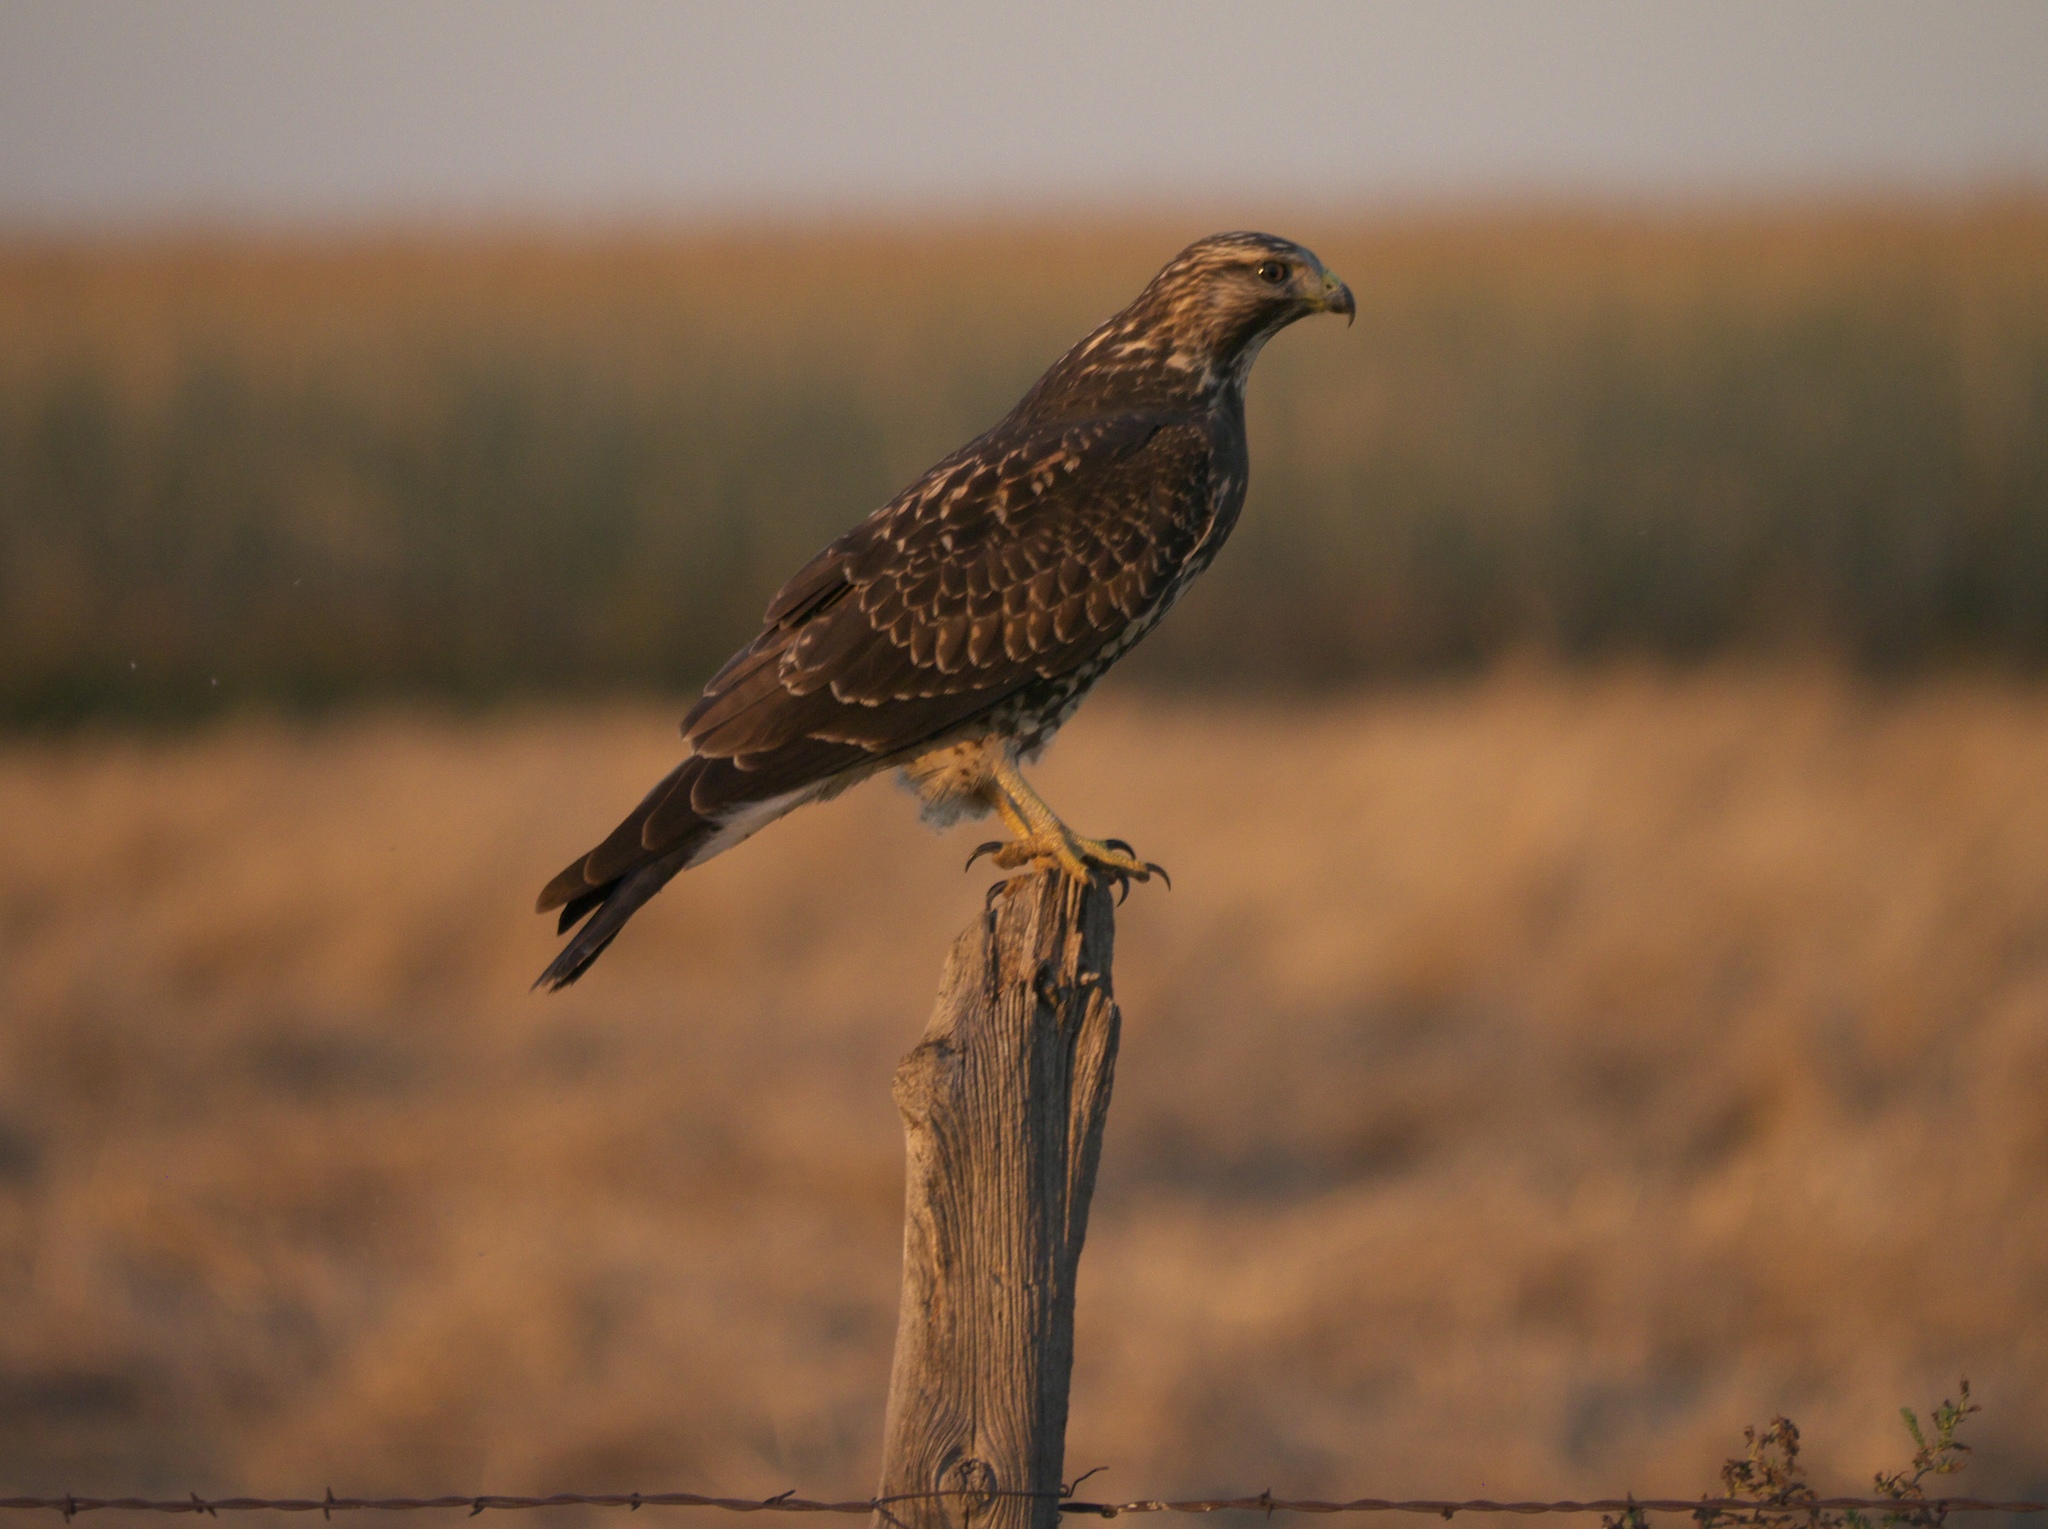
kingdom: Animalia
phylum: Chordata
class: Aves
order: Accipitriformes
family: Accipitridae
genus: Buteo
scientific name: Buteo swainsoni
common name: Swainson's hawk
